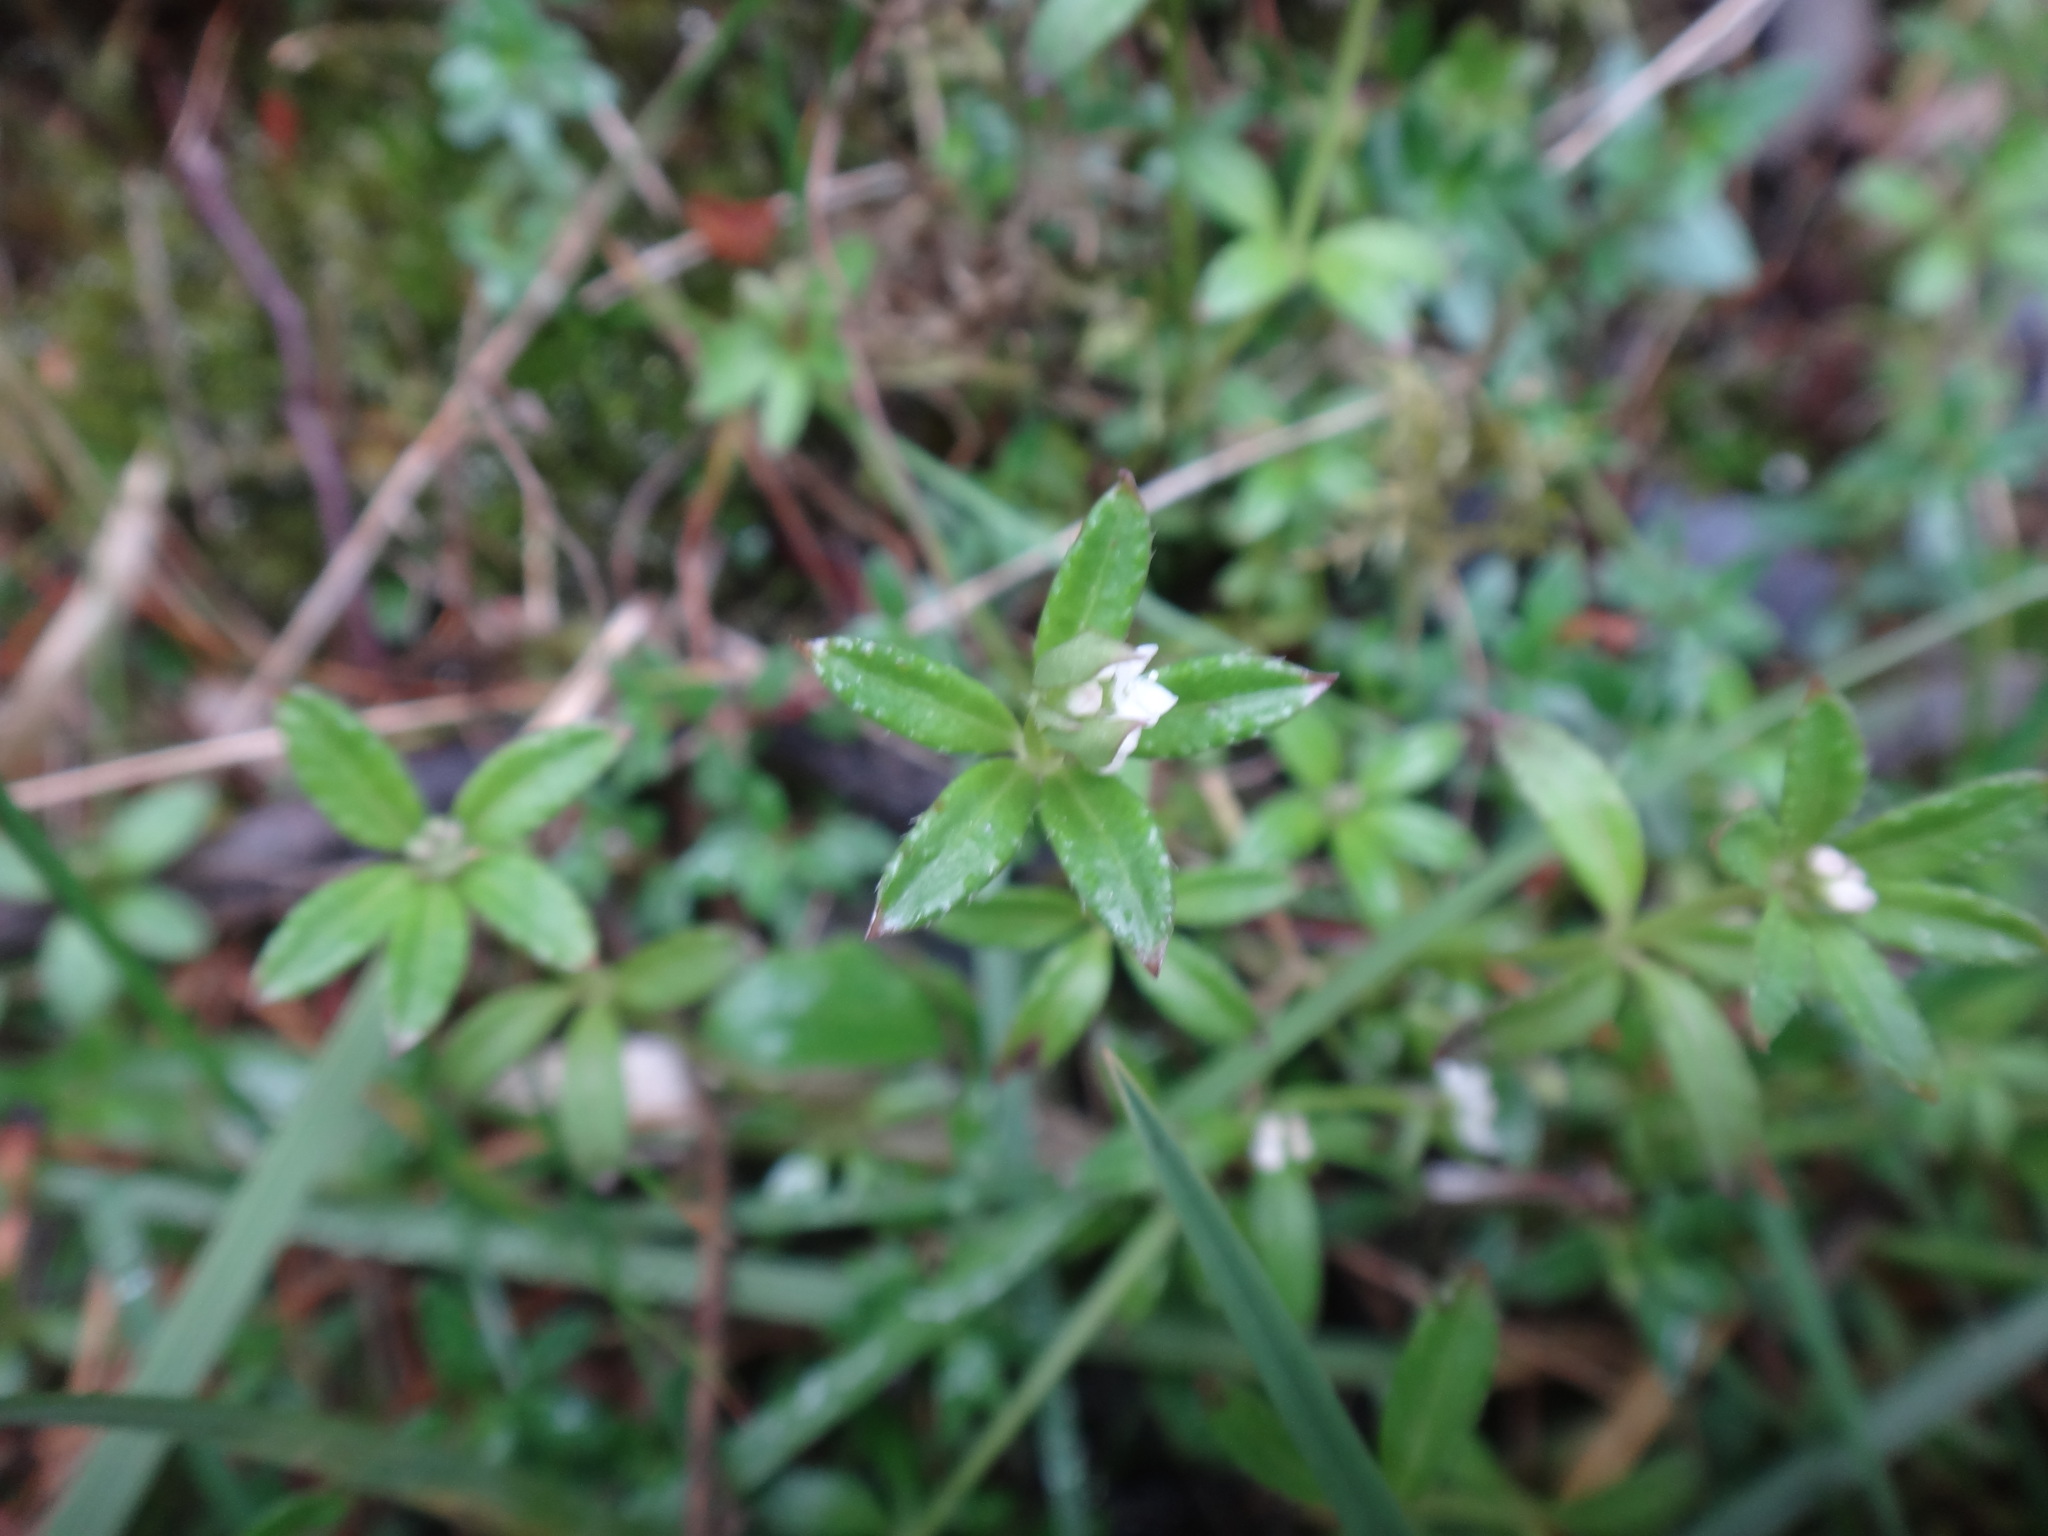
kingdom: Plantae
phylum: Tracheophyta
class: Magnoliopsida
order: Gentianales
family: Rubiaceae
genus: Galium
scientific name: Galium echinocarpum
